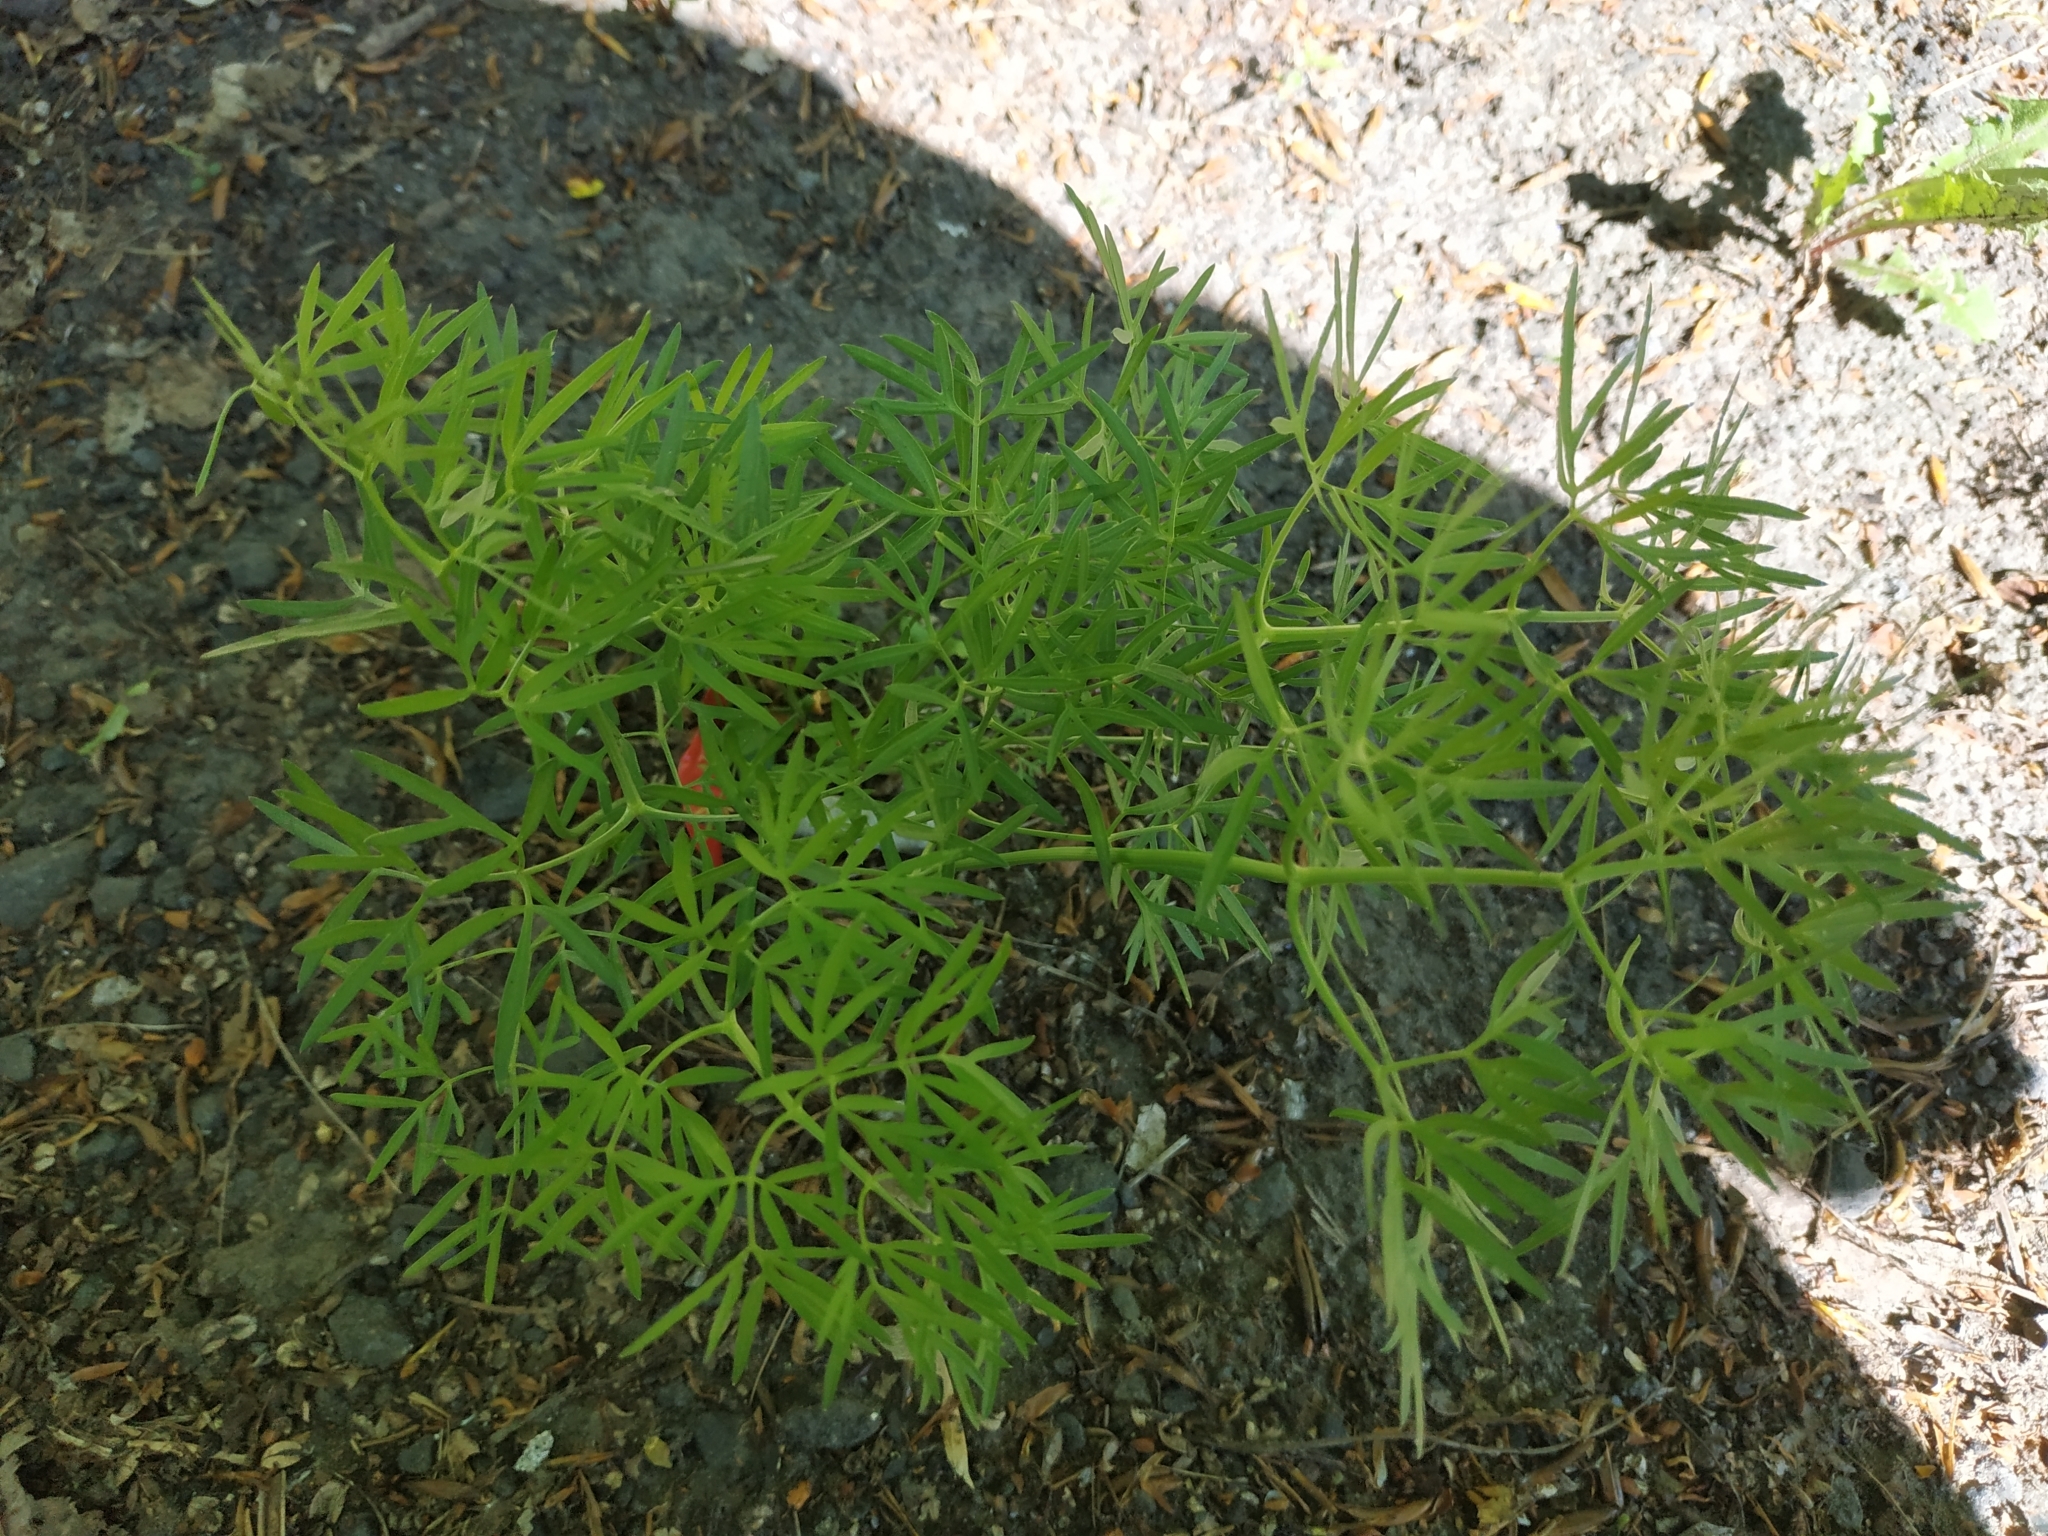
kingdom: Plantae
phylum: Tracheophyta
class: Magnoliopsida
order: Apiales
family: Apiaceae
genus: Cenolophium
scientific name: Cenolophium fischeri
